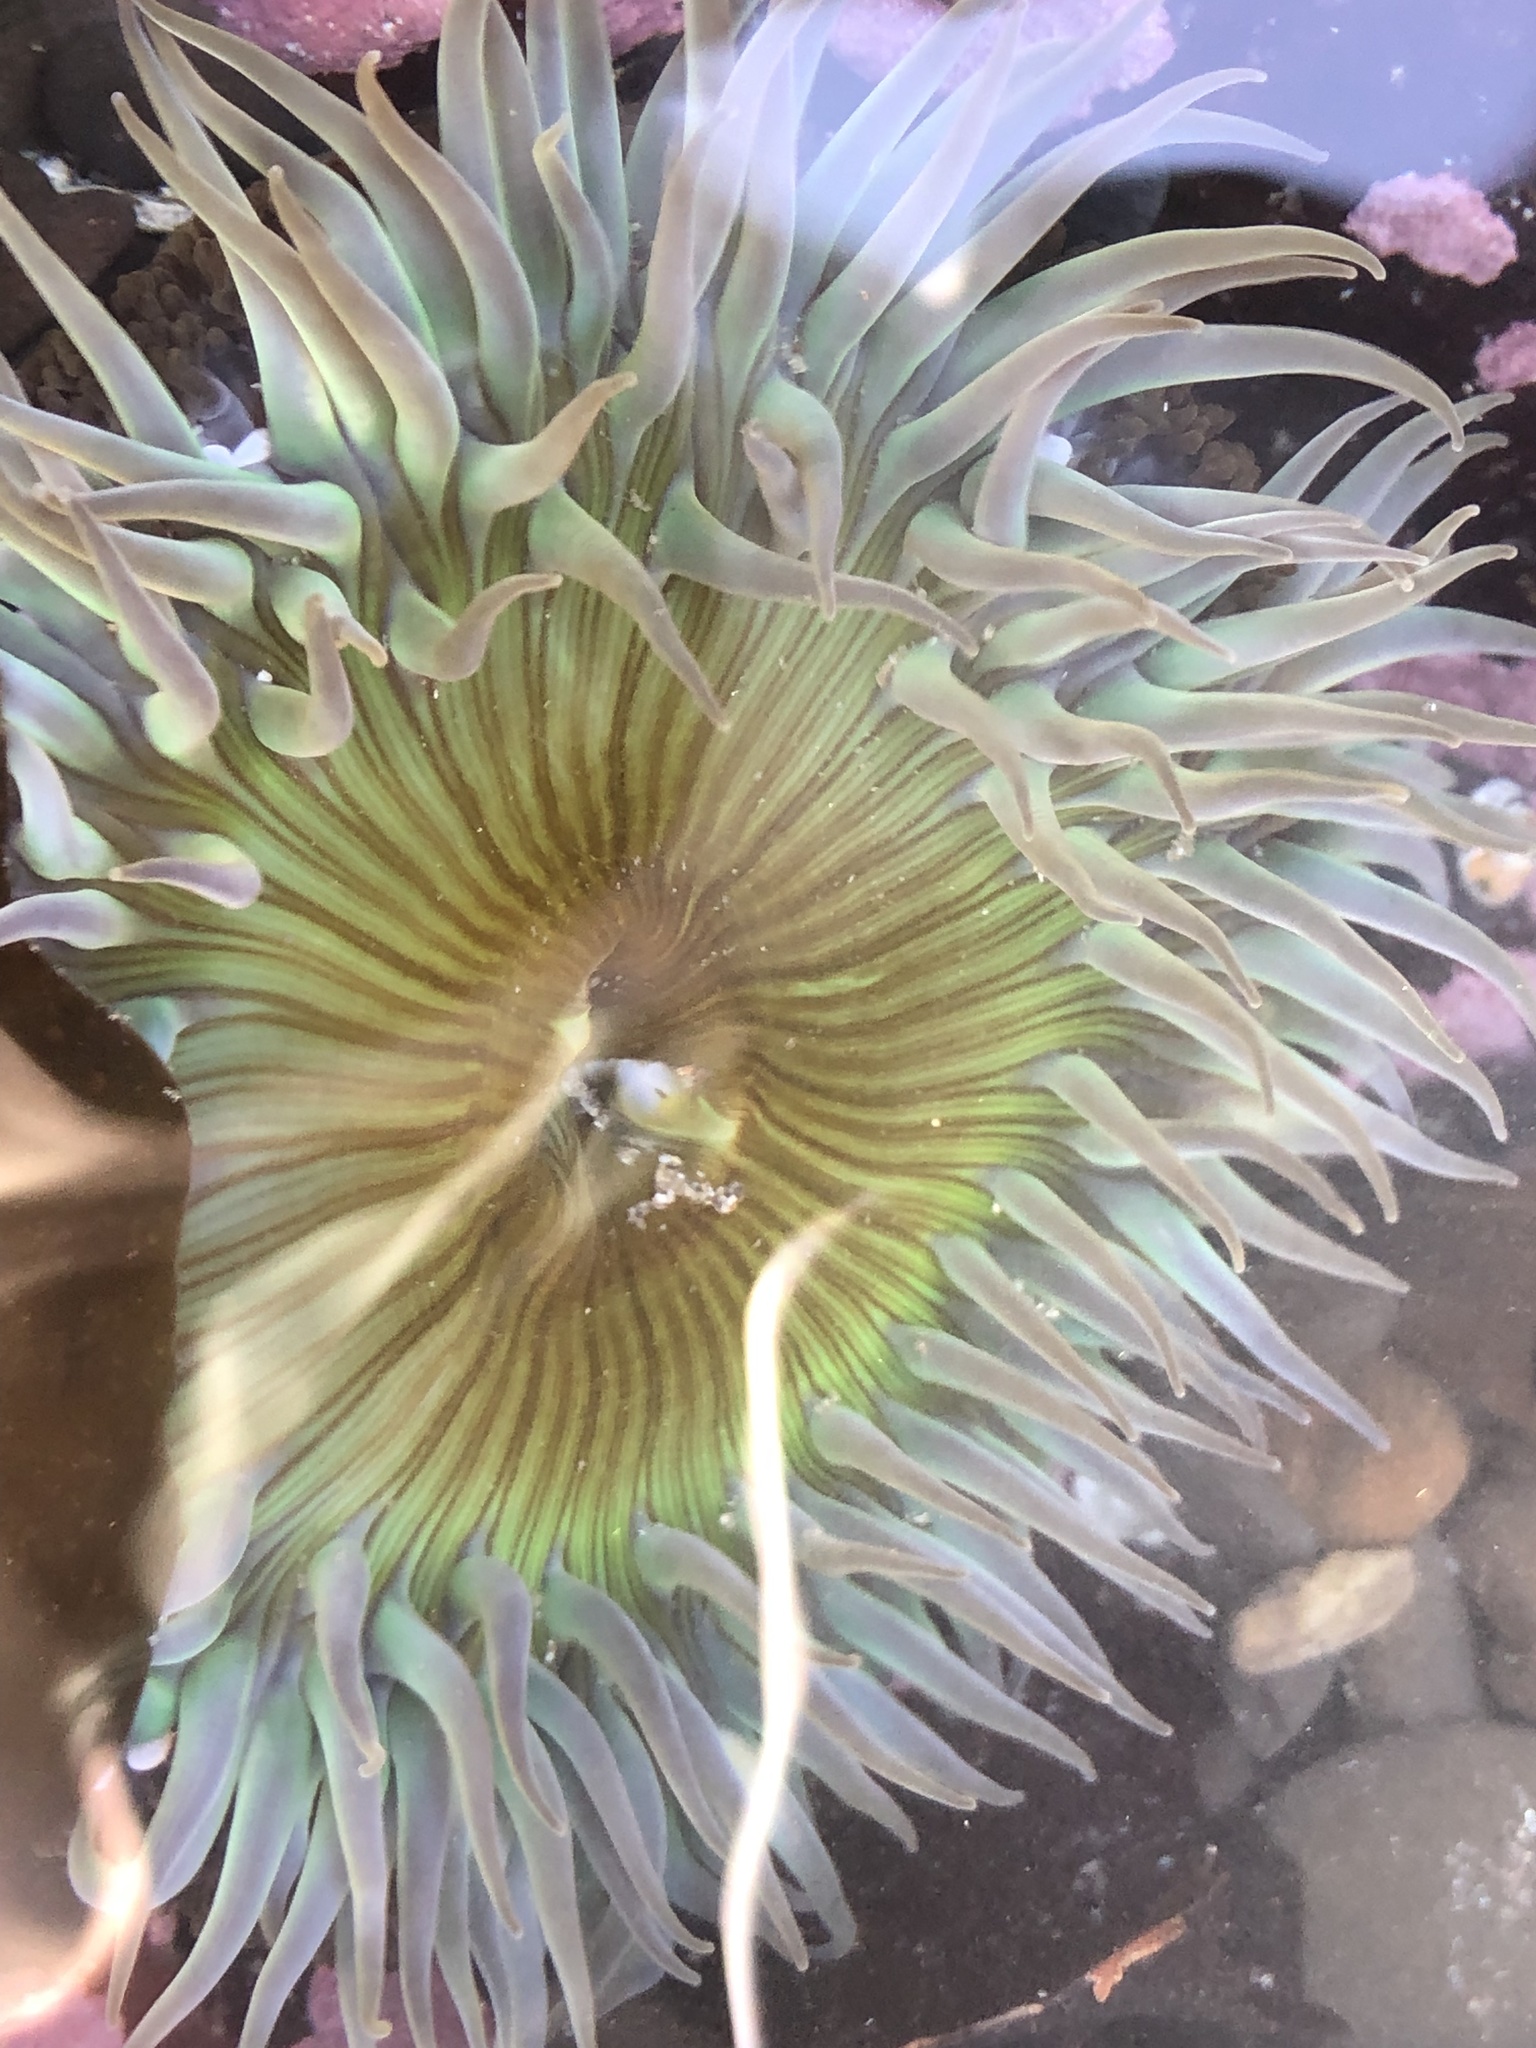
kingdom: Animalia
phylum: Cnidaria
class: Anthozoa
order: Actiniaria
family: Actiniidae
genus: Anthopleura
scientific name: Anthopleura sola
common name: Sun anemone
